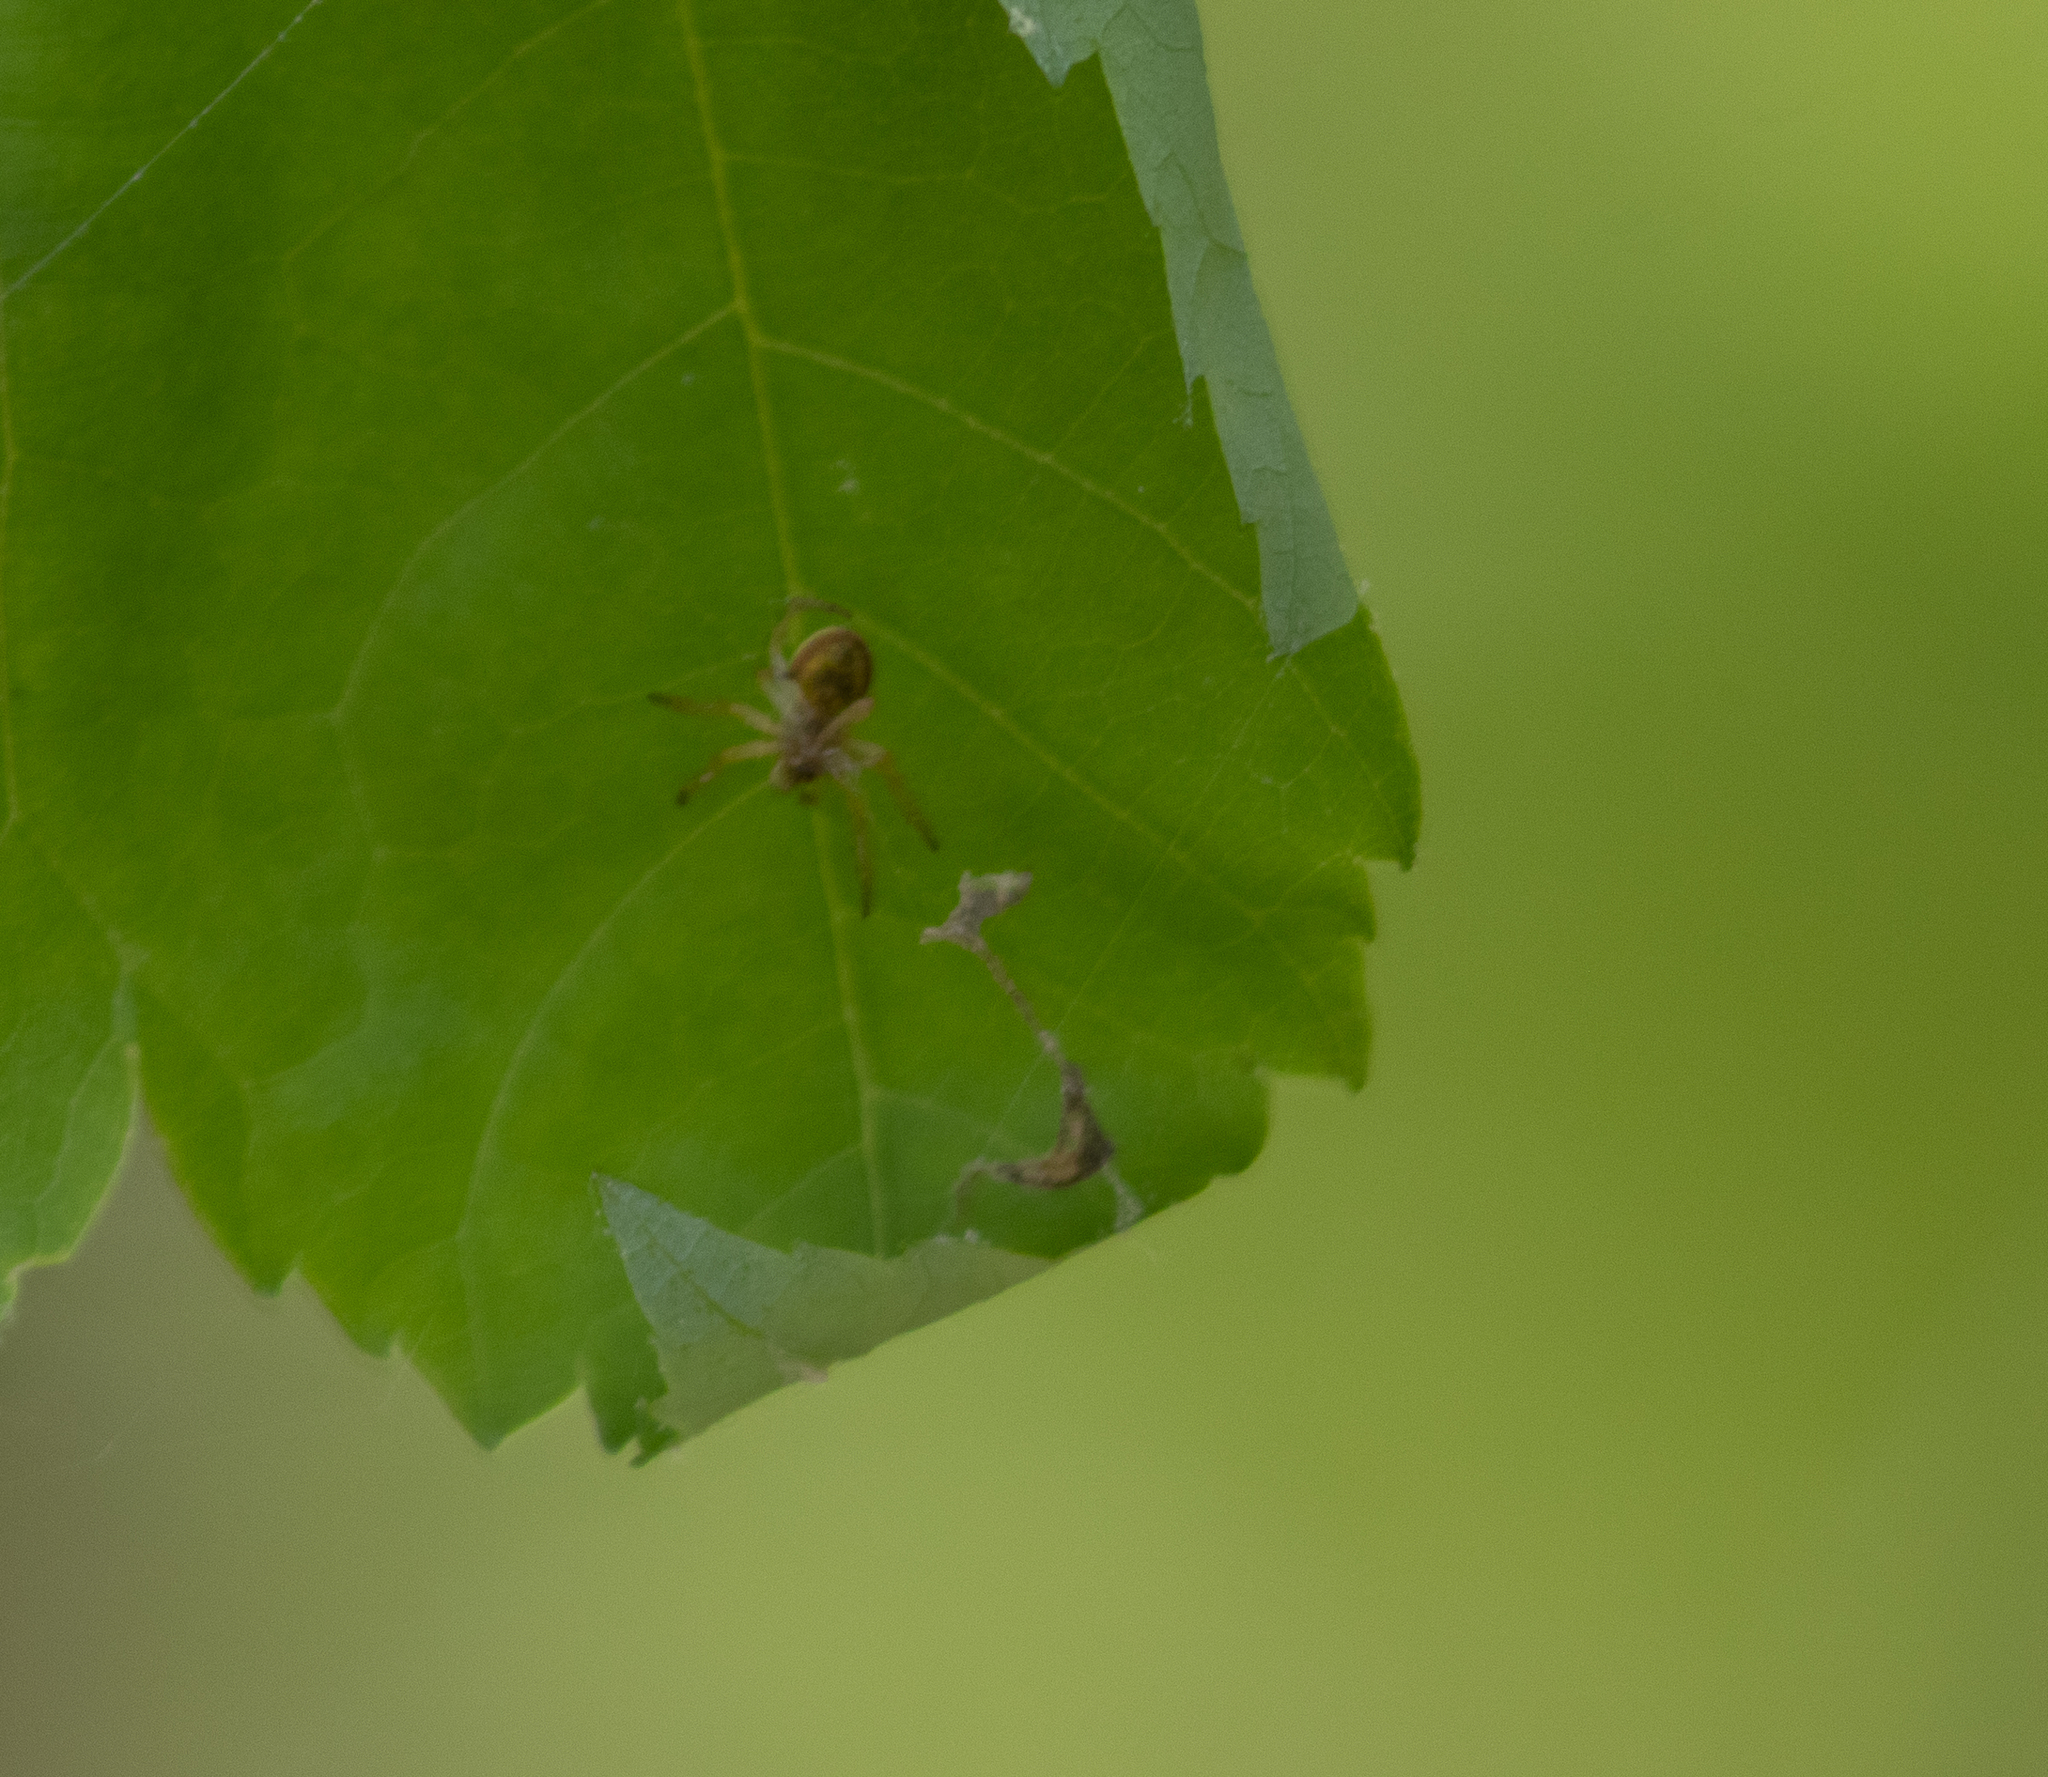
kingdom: Animalia
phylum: Arthropoda
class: Arachnida
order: Araneae
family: Araneidae
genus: Araniella
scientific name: Araniella displicata
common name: Sixspotted orb weaver
